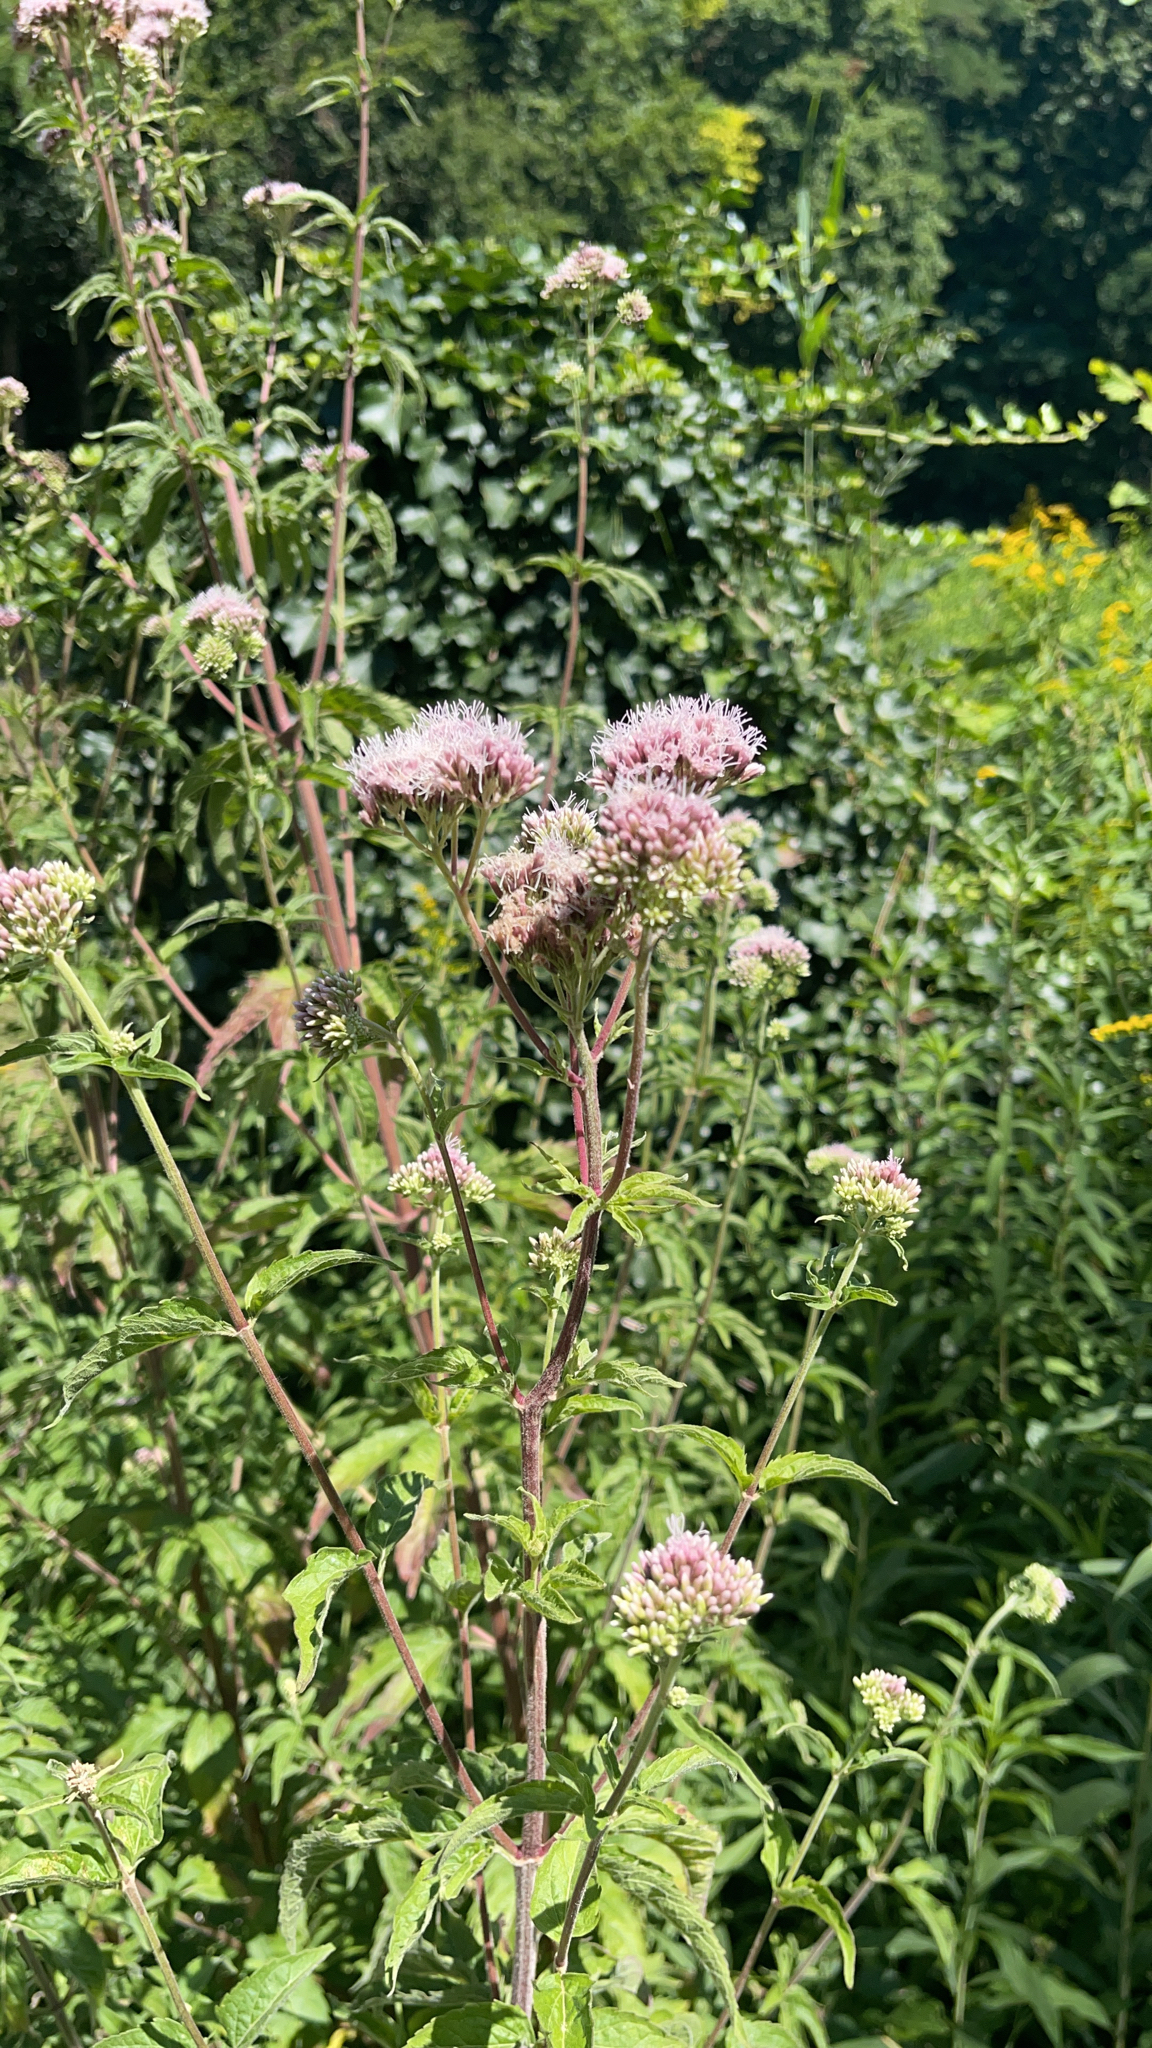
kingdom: Plantae
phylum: Tracheophyta
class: Magnoliopsida
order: Asterales
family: Asteraceae
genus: Eupatorium
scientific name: Eupatorium cannabinum
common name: Hemp-agrimony
